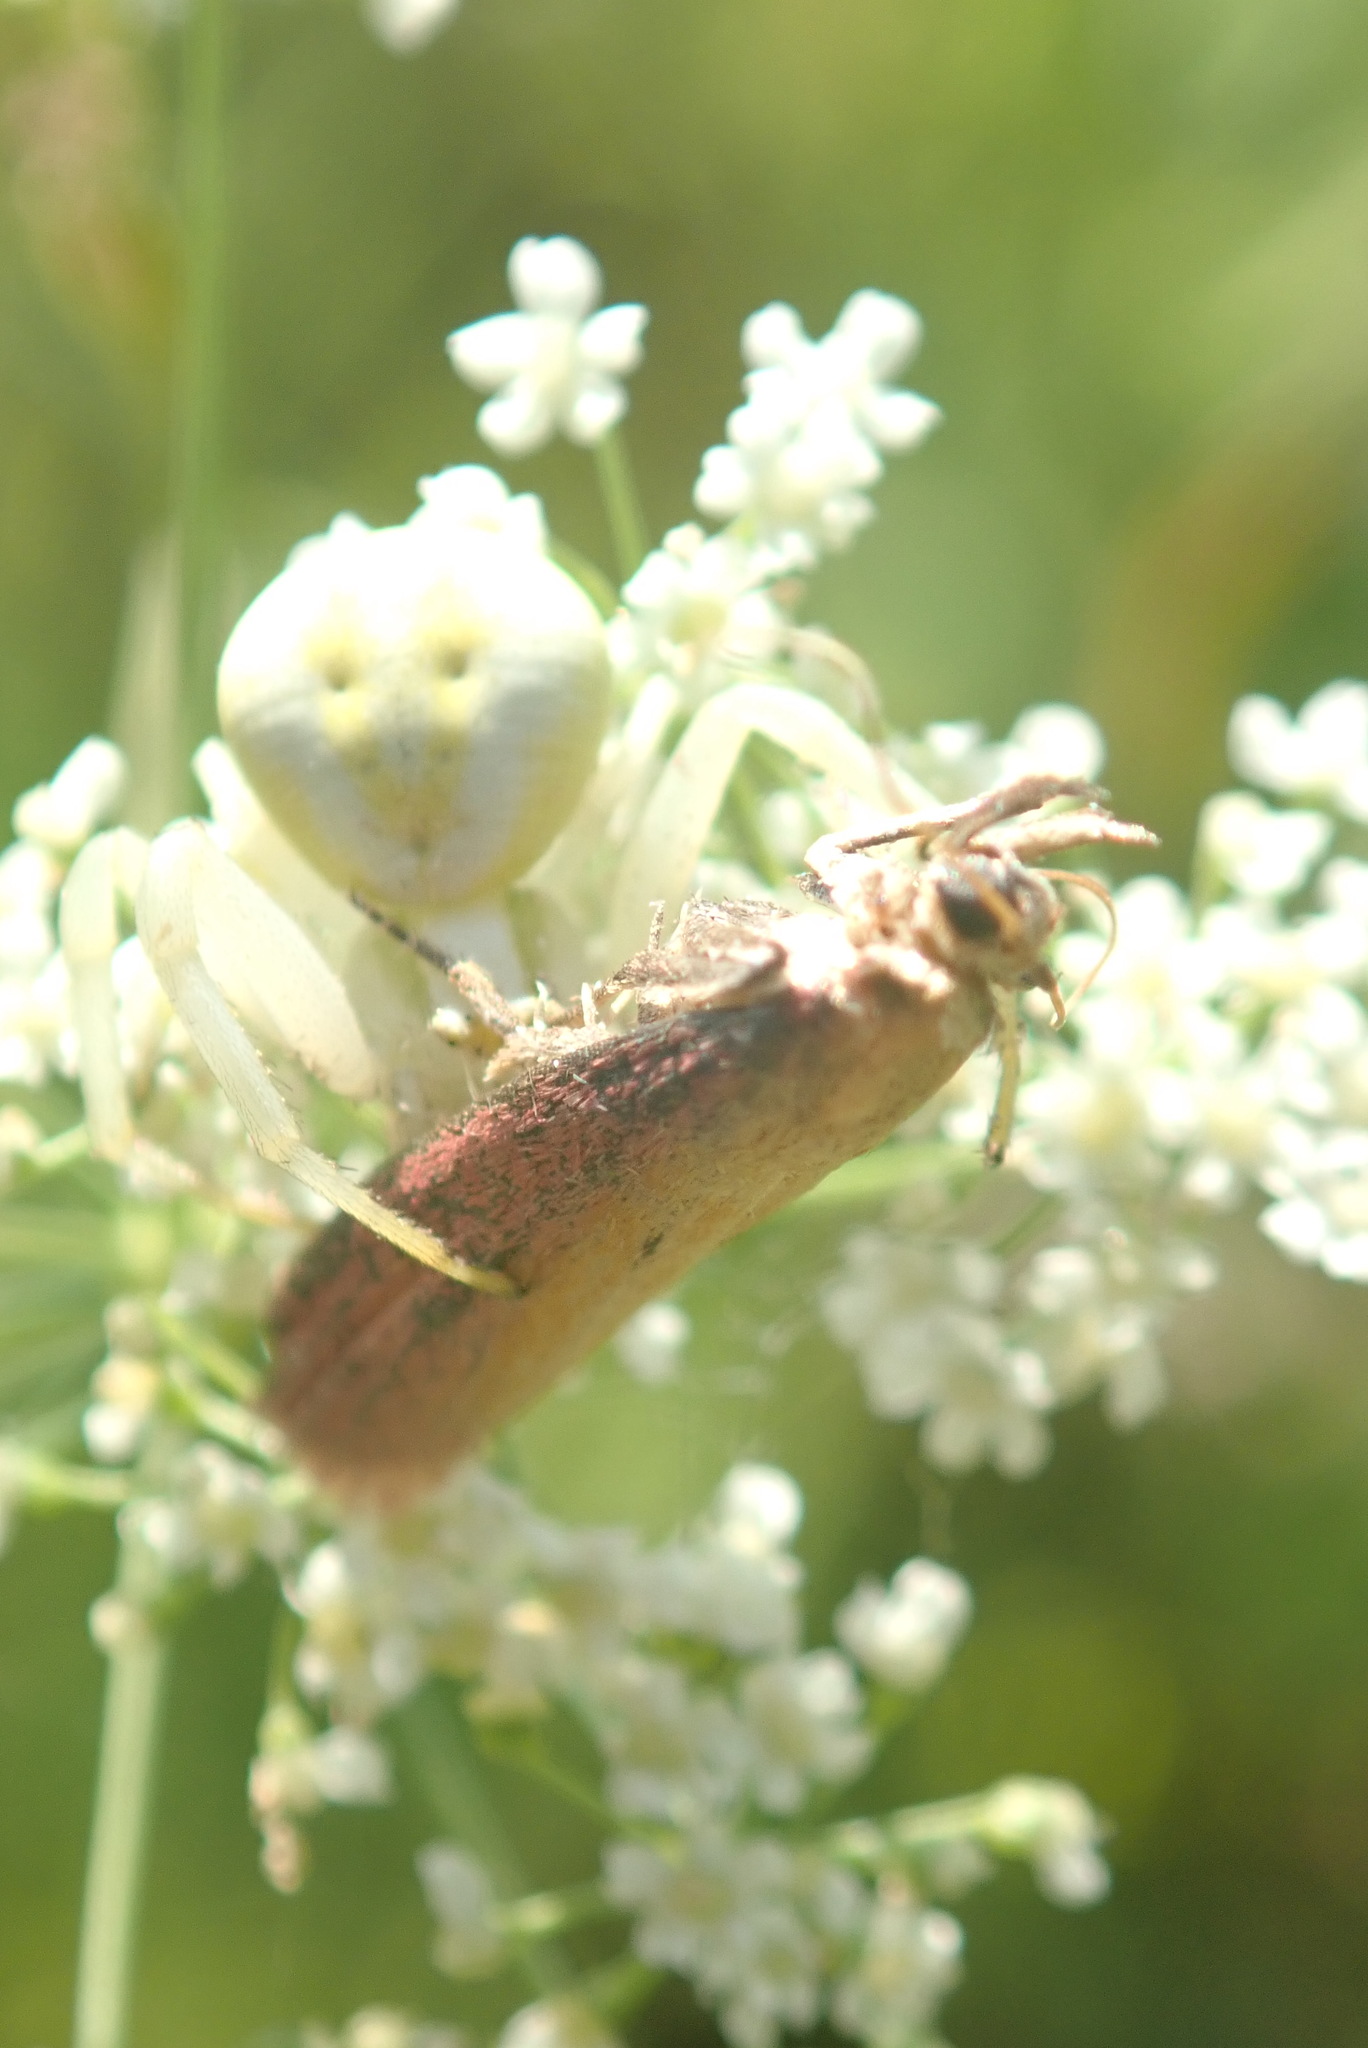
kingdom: Animalia
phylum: Arthropoda
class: Insecta
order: Lepidoptera
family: Pyralidae
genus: Oncocera
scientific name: Oncocera semirubella
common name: Rosy-striped knot-horn
